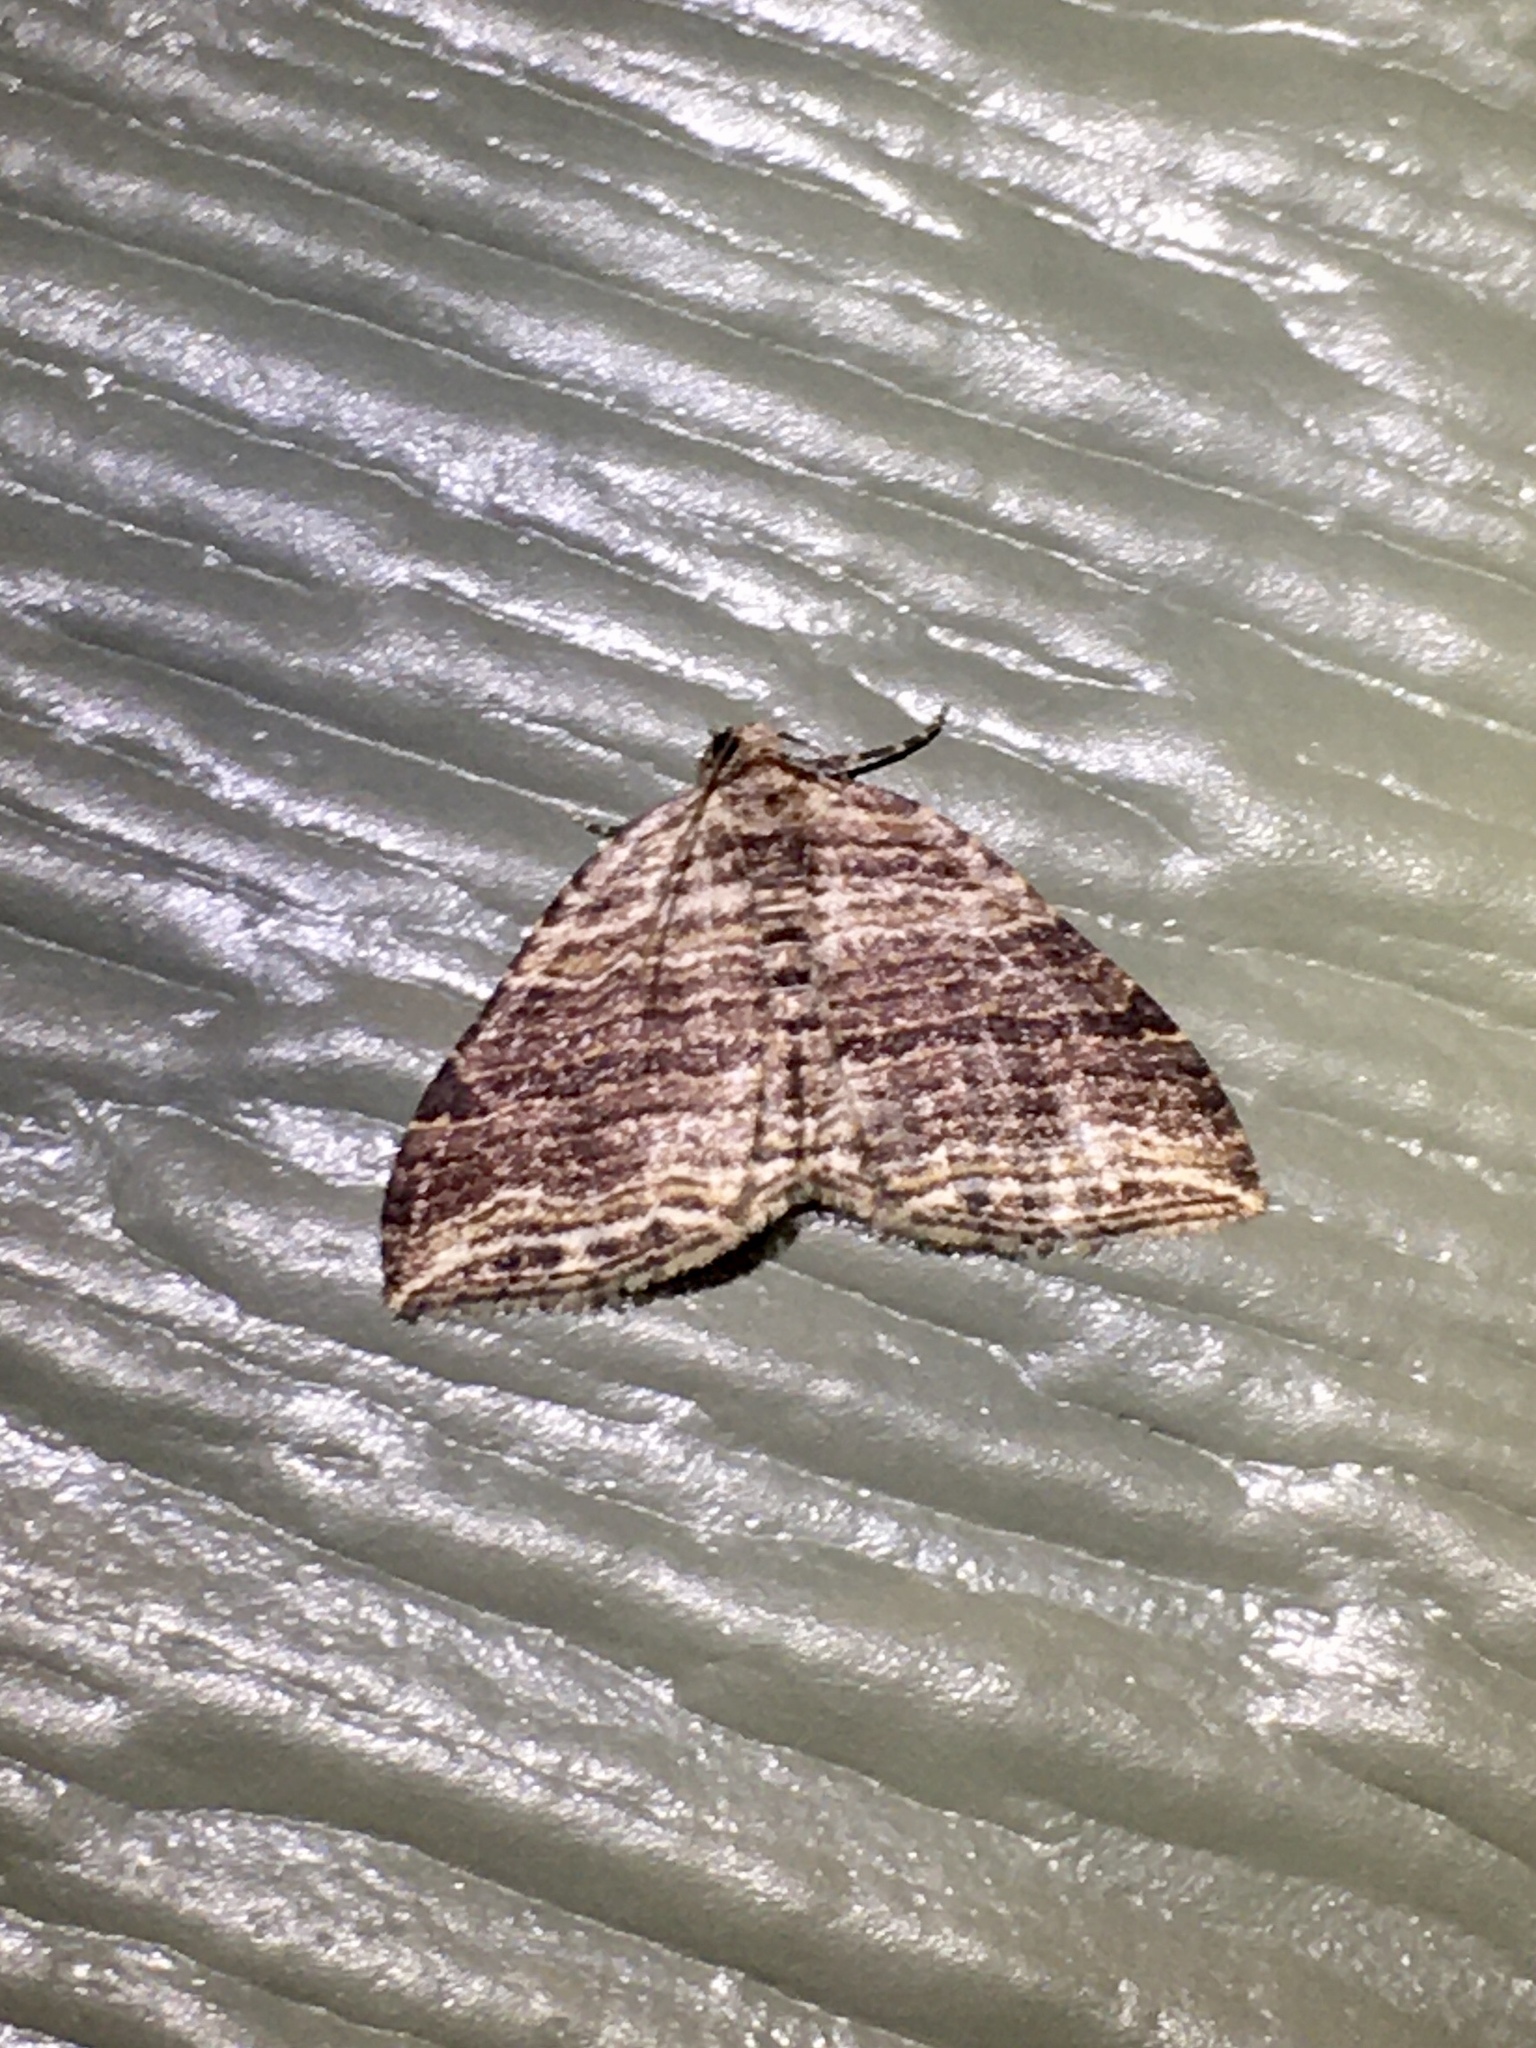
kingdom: Animalia
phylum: Arthropoda
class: Insecta
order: Lepidoptera
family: Geometridae
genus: Anticlea
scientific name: Anticlea multiferata
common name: Many-lined carpet
